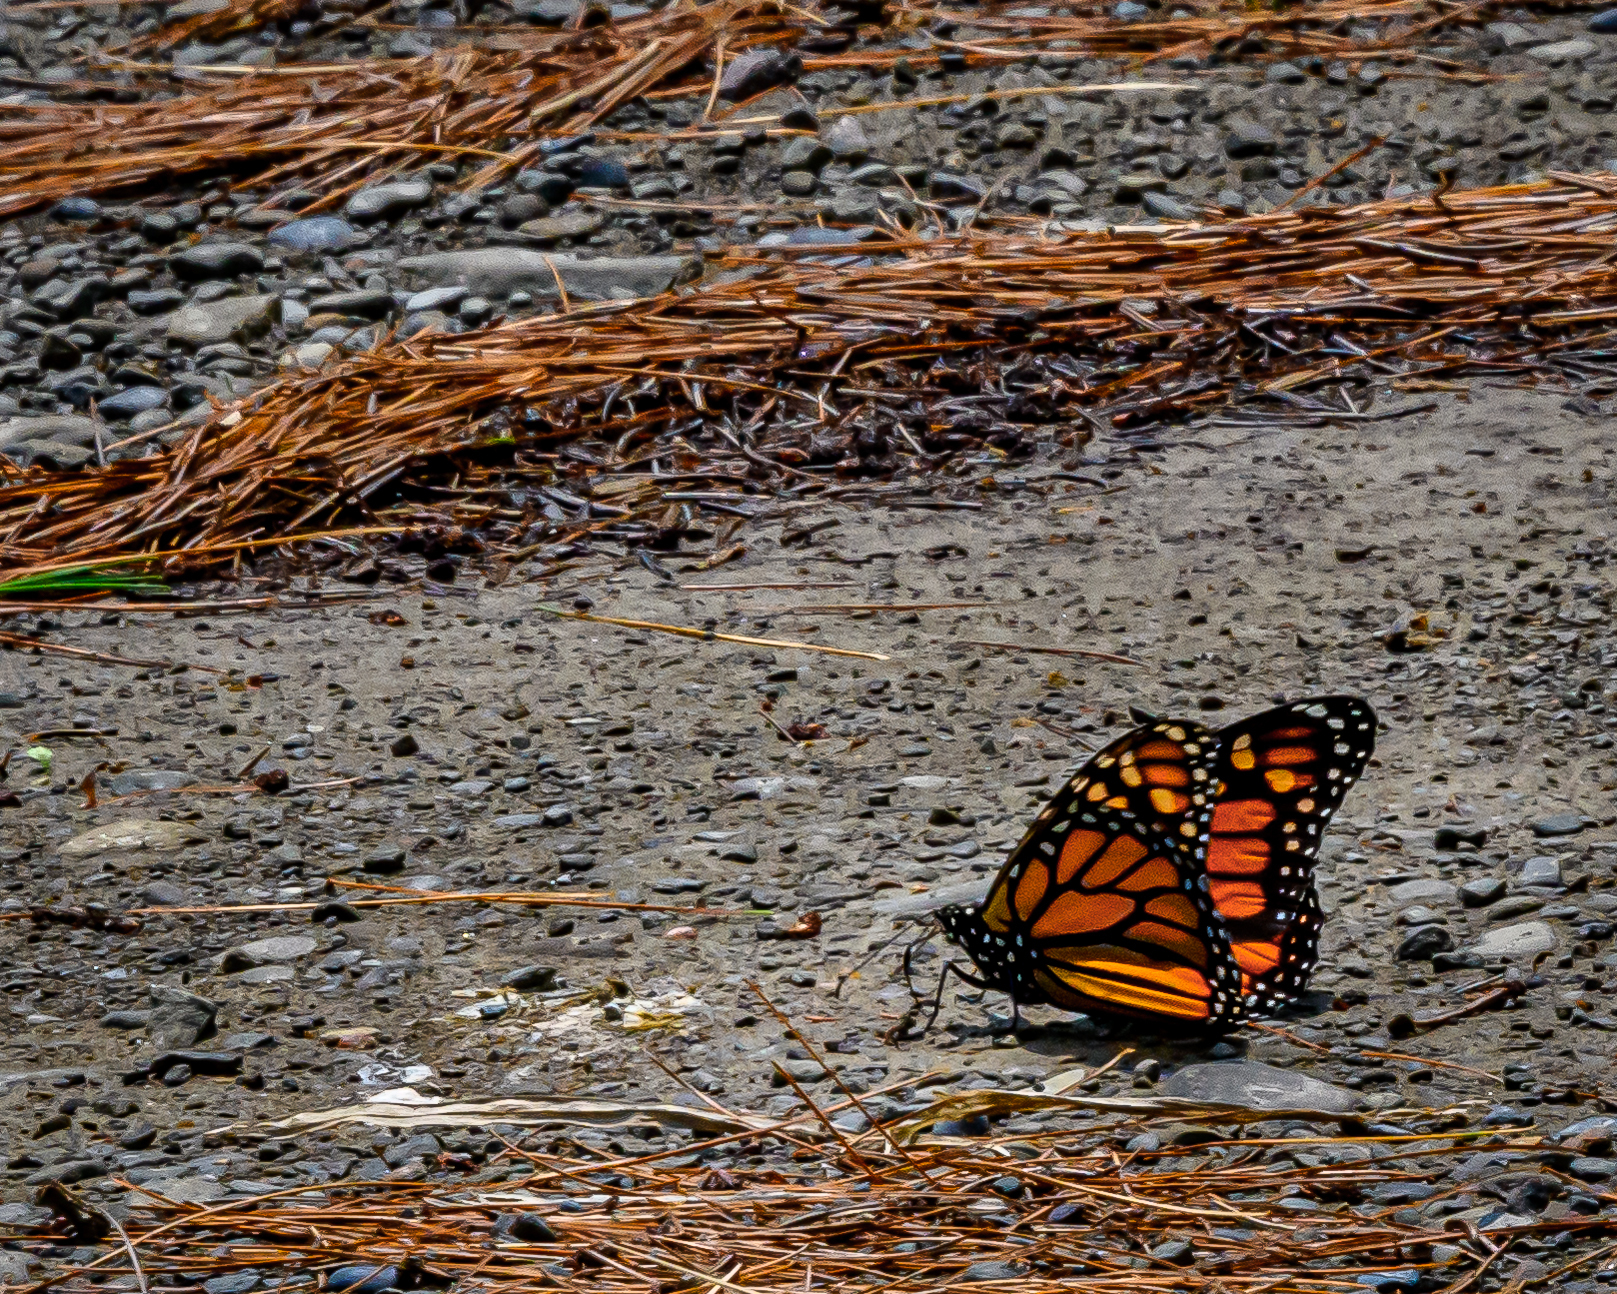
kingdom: Animalia
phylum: Arthropoda
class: Insecta
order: Lepidoptera
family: Nymphalidae
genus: Danaus
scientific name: Danaus plexippus
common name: Monarch
